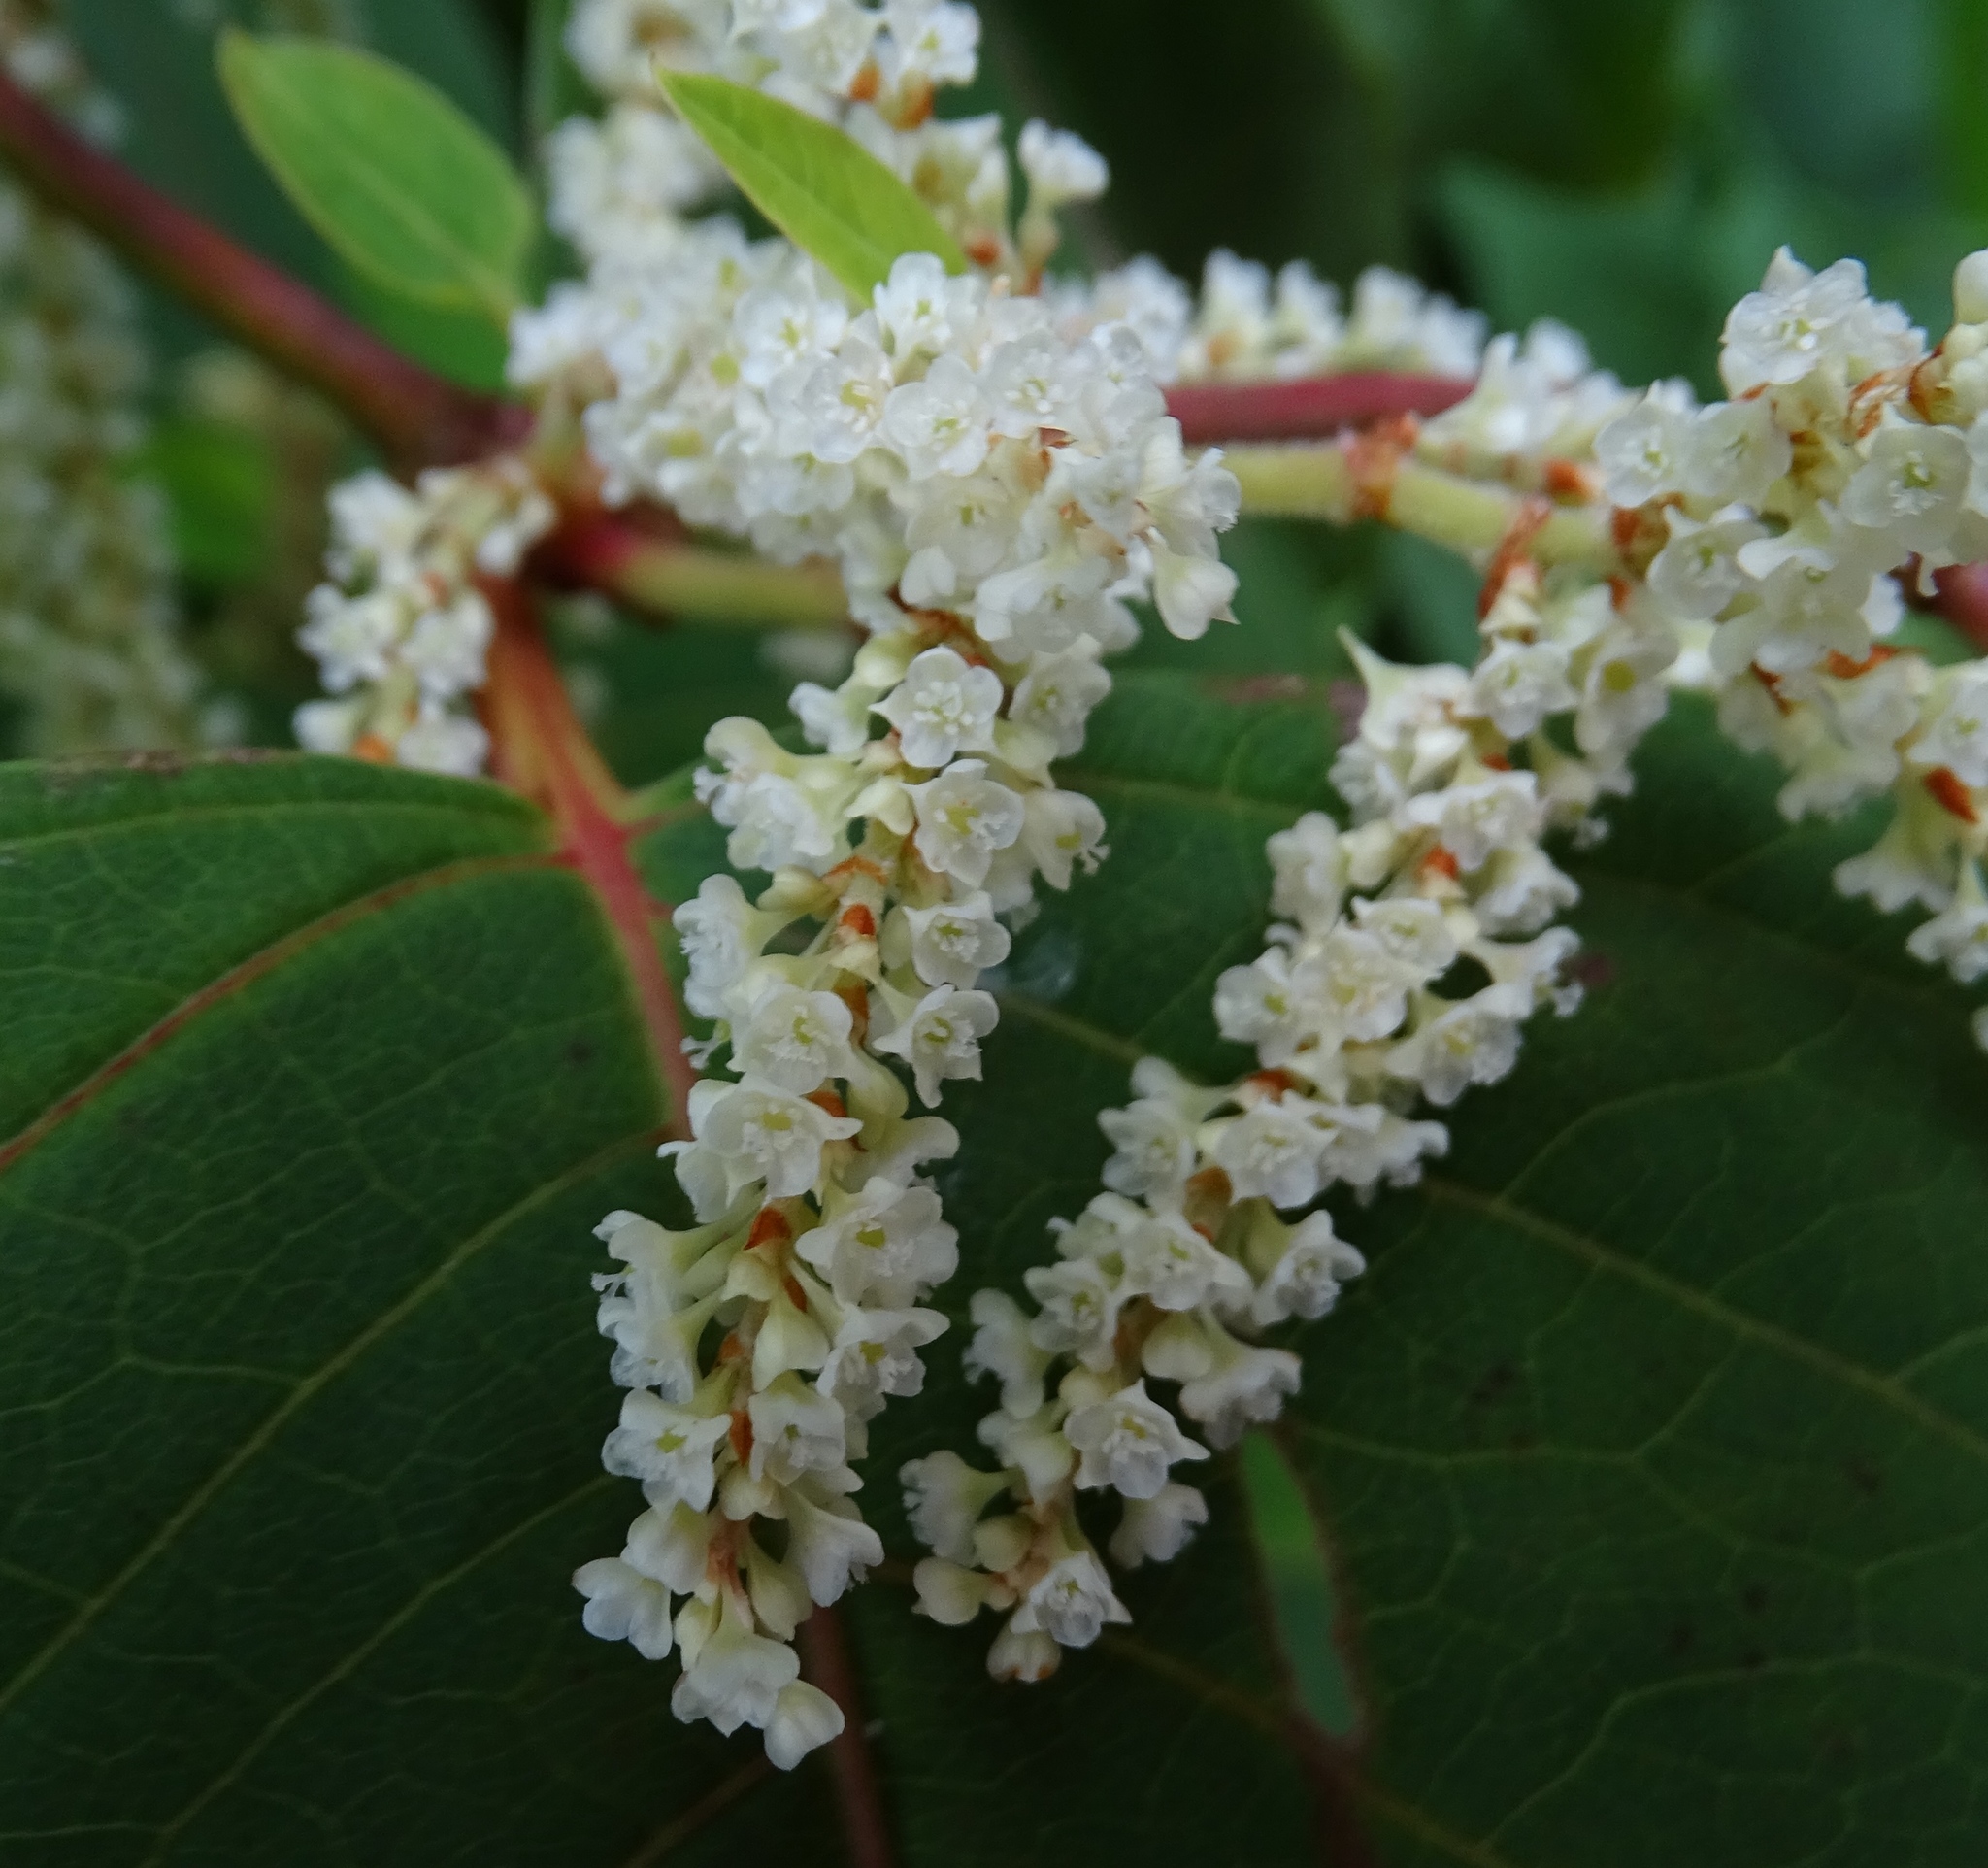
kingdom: Plantae
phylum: Tracheophyta
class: Magnoliopsida
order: Caryophyllales
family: Polygonaceae
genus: Reynoutria
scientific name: Reynoutria japonica
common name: Japanese knotweed
